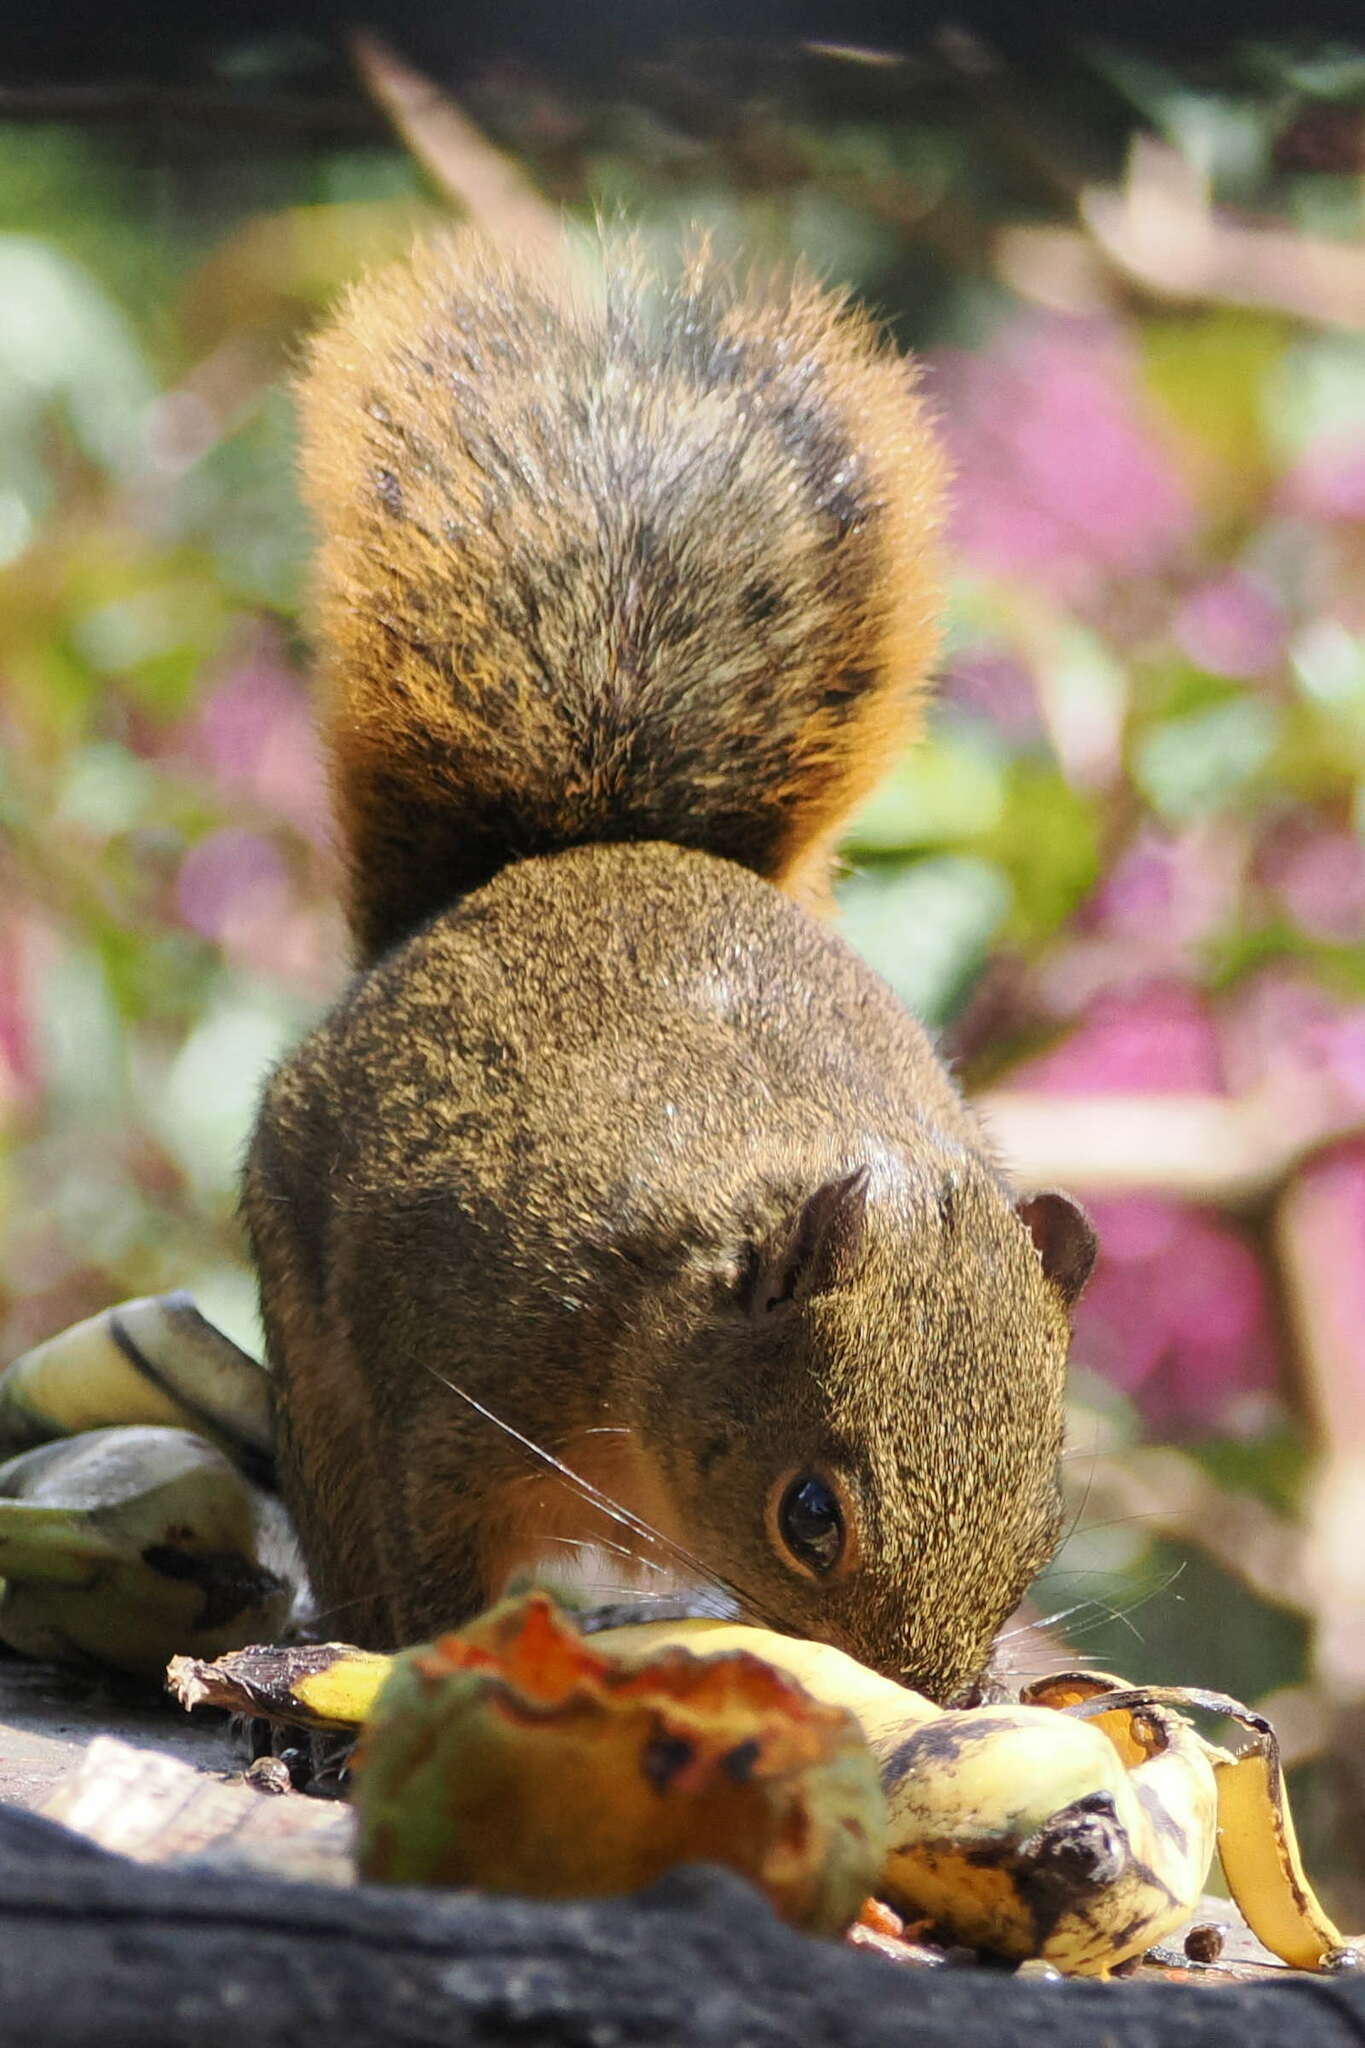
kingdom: Animalia
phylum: Chordata
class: Mammalia
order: Rodentia
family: Sciuridae
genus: Sciurus
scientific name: Sciurus granatensis
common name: Red-tailed squirrel
